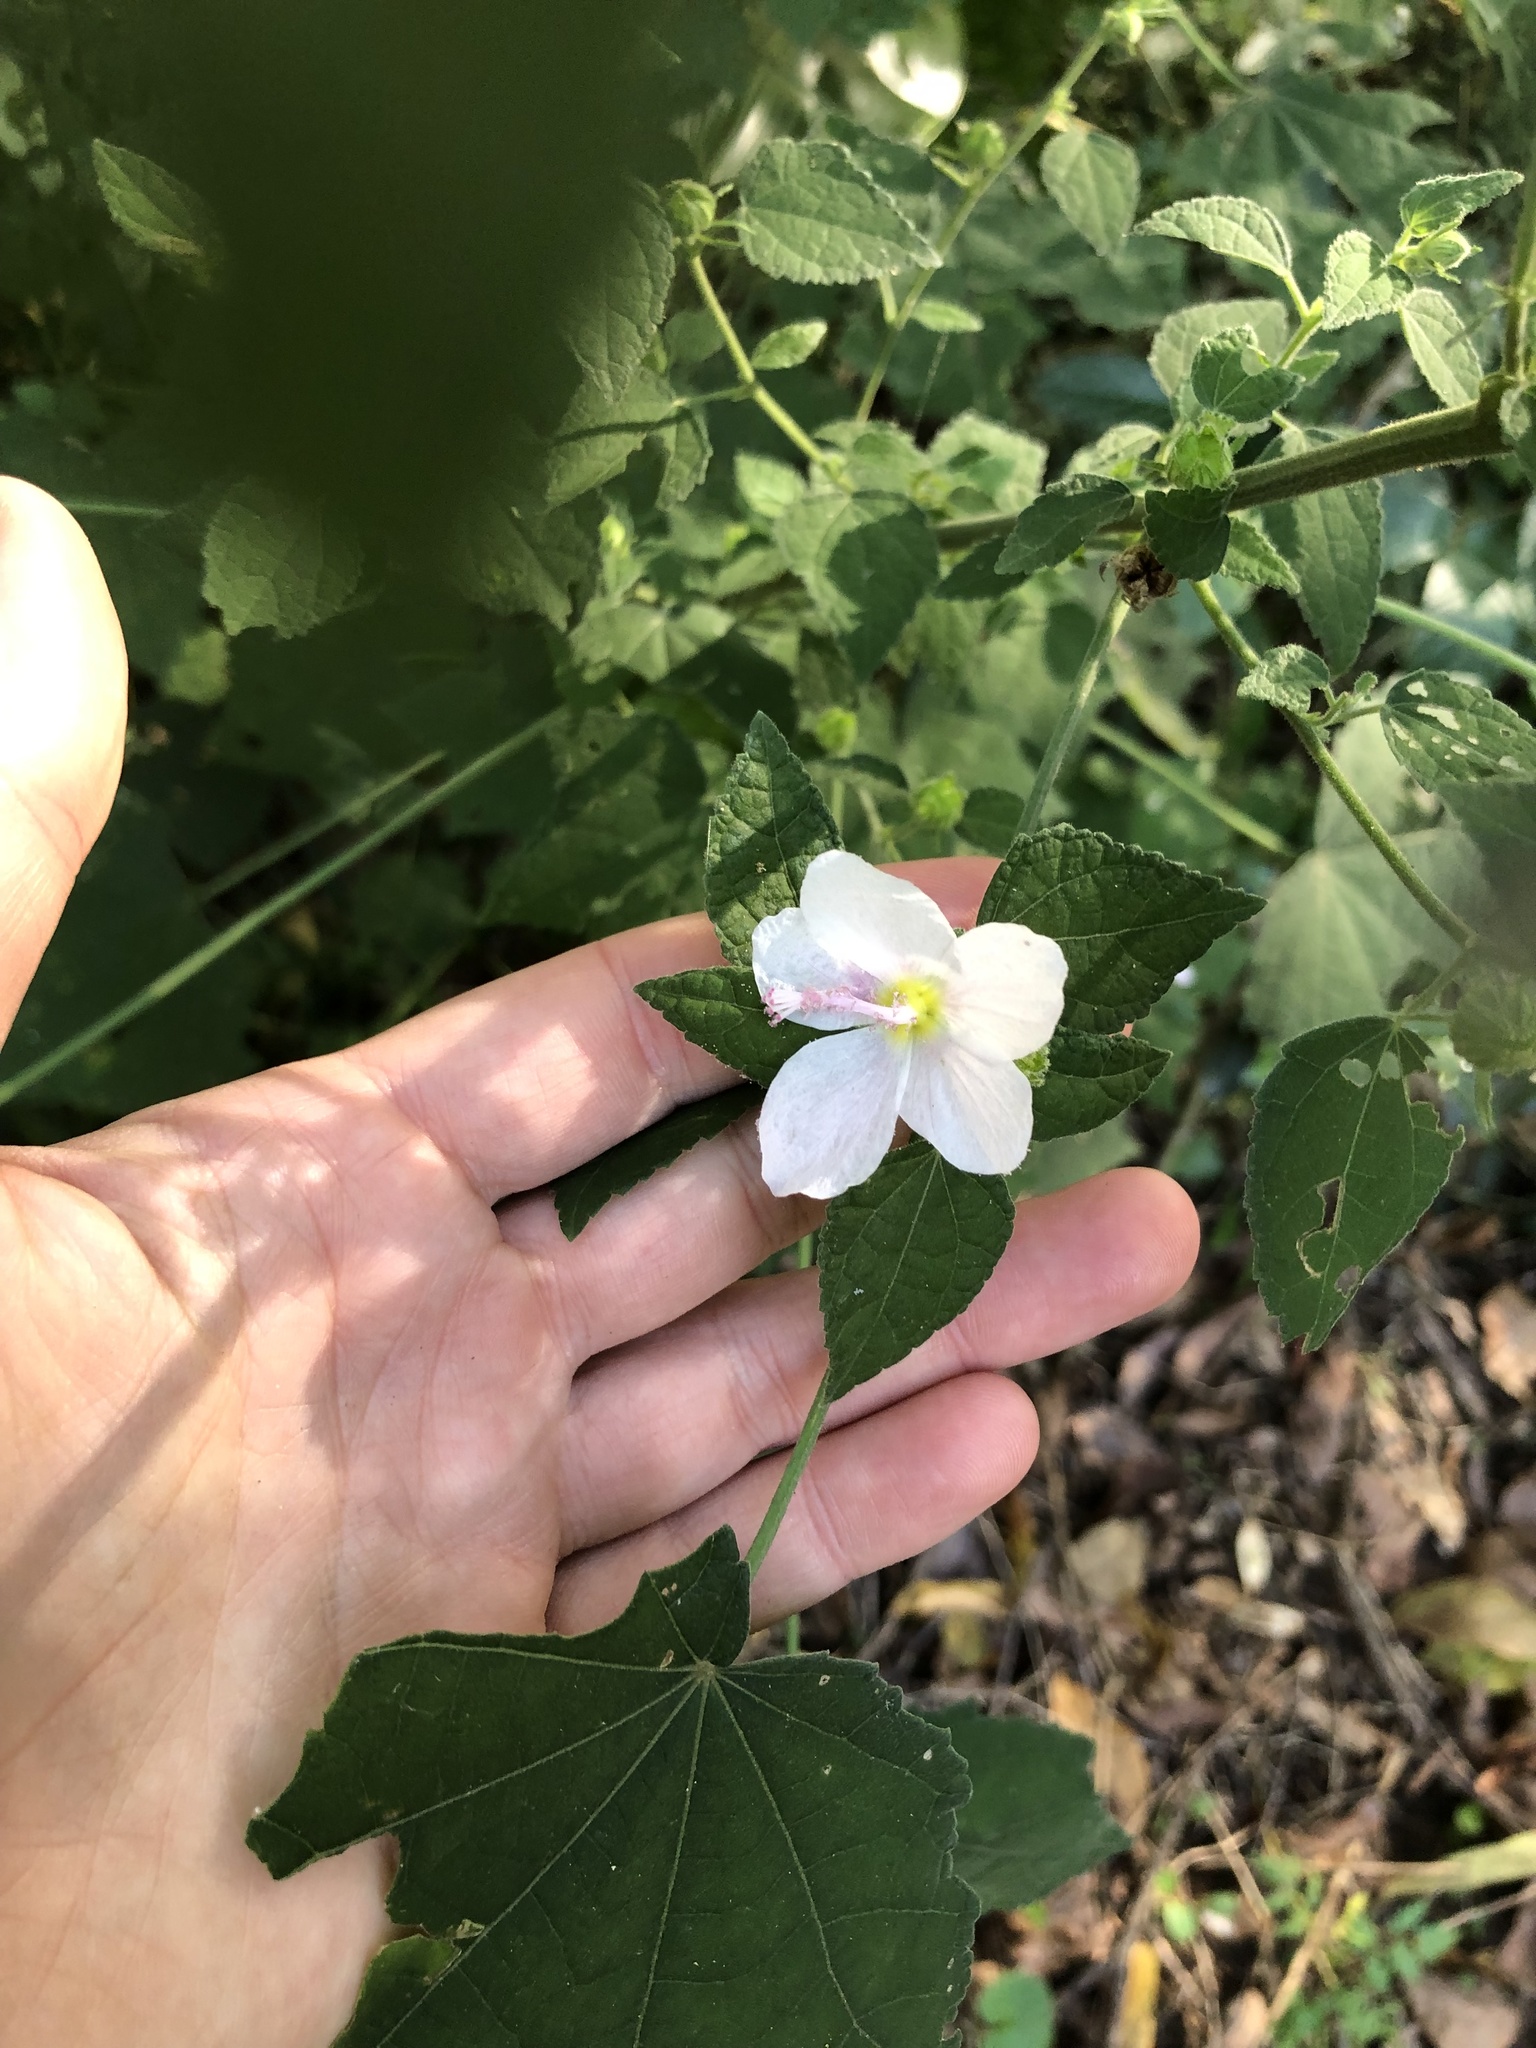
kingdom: Plantae
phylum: Tracheophyta
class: Magnoliopsida
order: Malvales
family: Malvaceae
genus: Pavonia
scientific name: Pavonia columella
